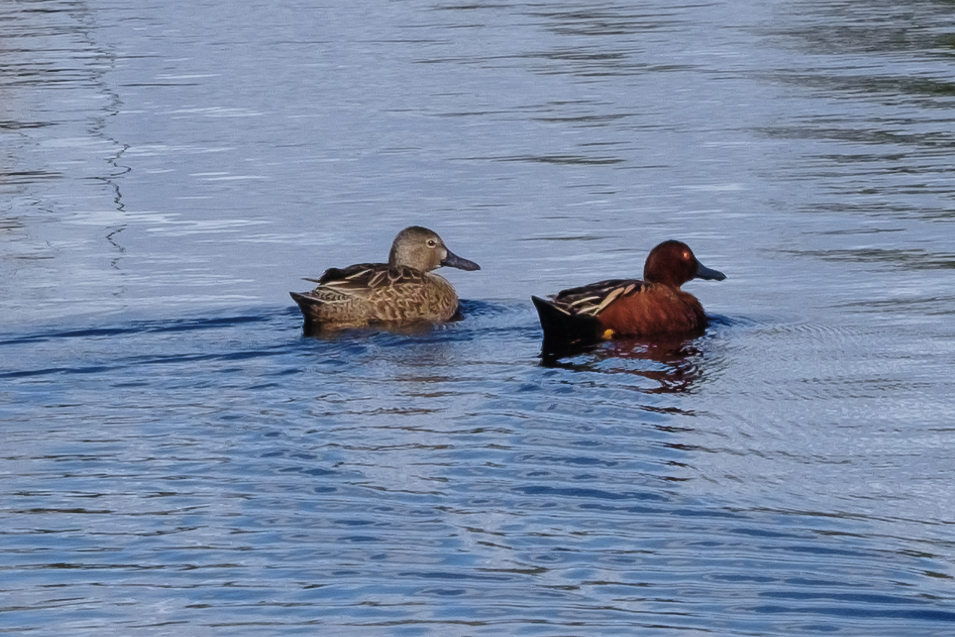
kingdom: Animalia
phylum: Chordata
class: Aves
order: Anseriformes
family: Anatidae
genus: Spatula
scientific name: Spatula cyanoptera
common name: Cinnamon teal
